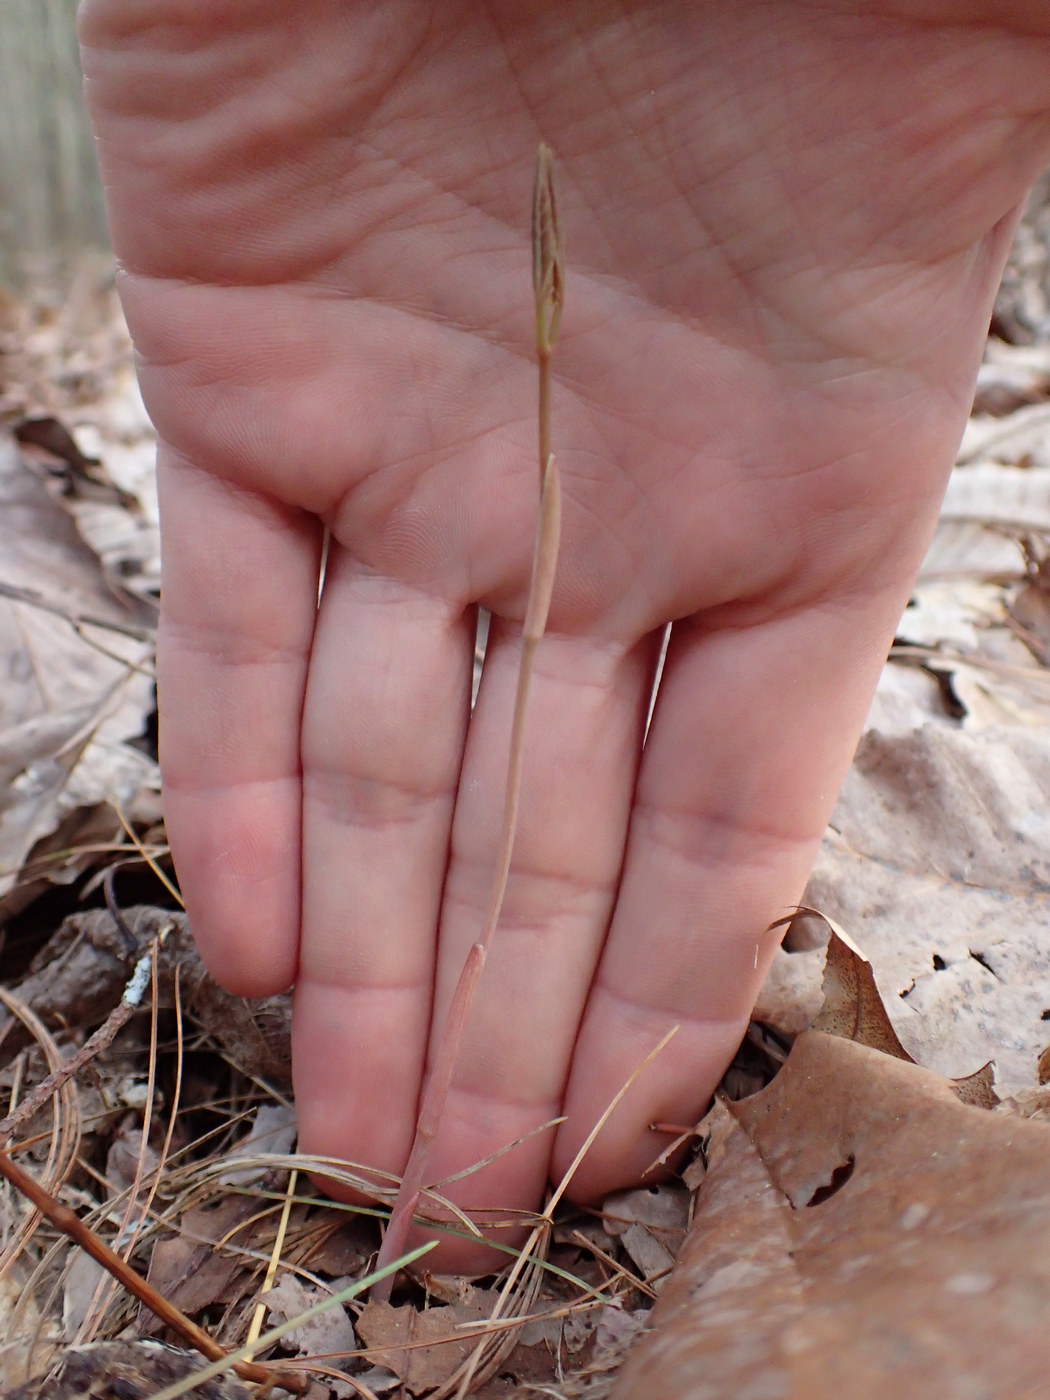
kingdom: Plantae
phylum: Tracheophyta
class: Liliopsida
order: Liliales
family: Smilacaceae
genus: Smilax
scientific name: Smilax biltmoreana
